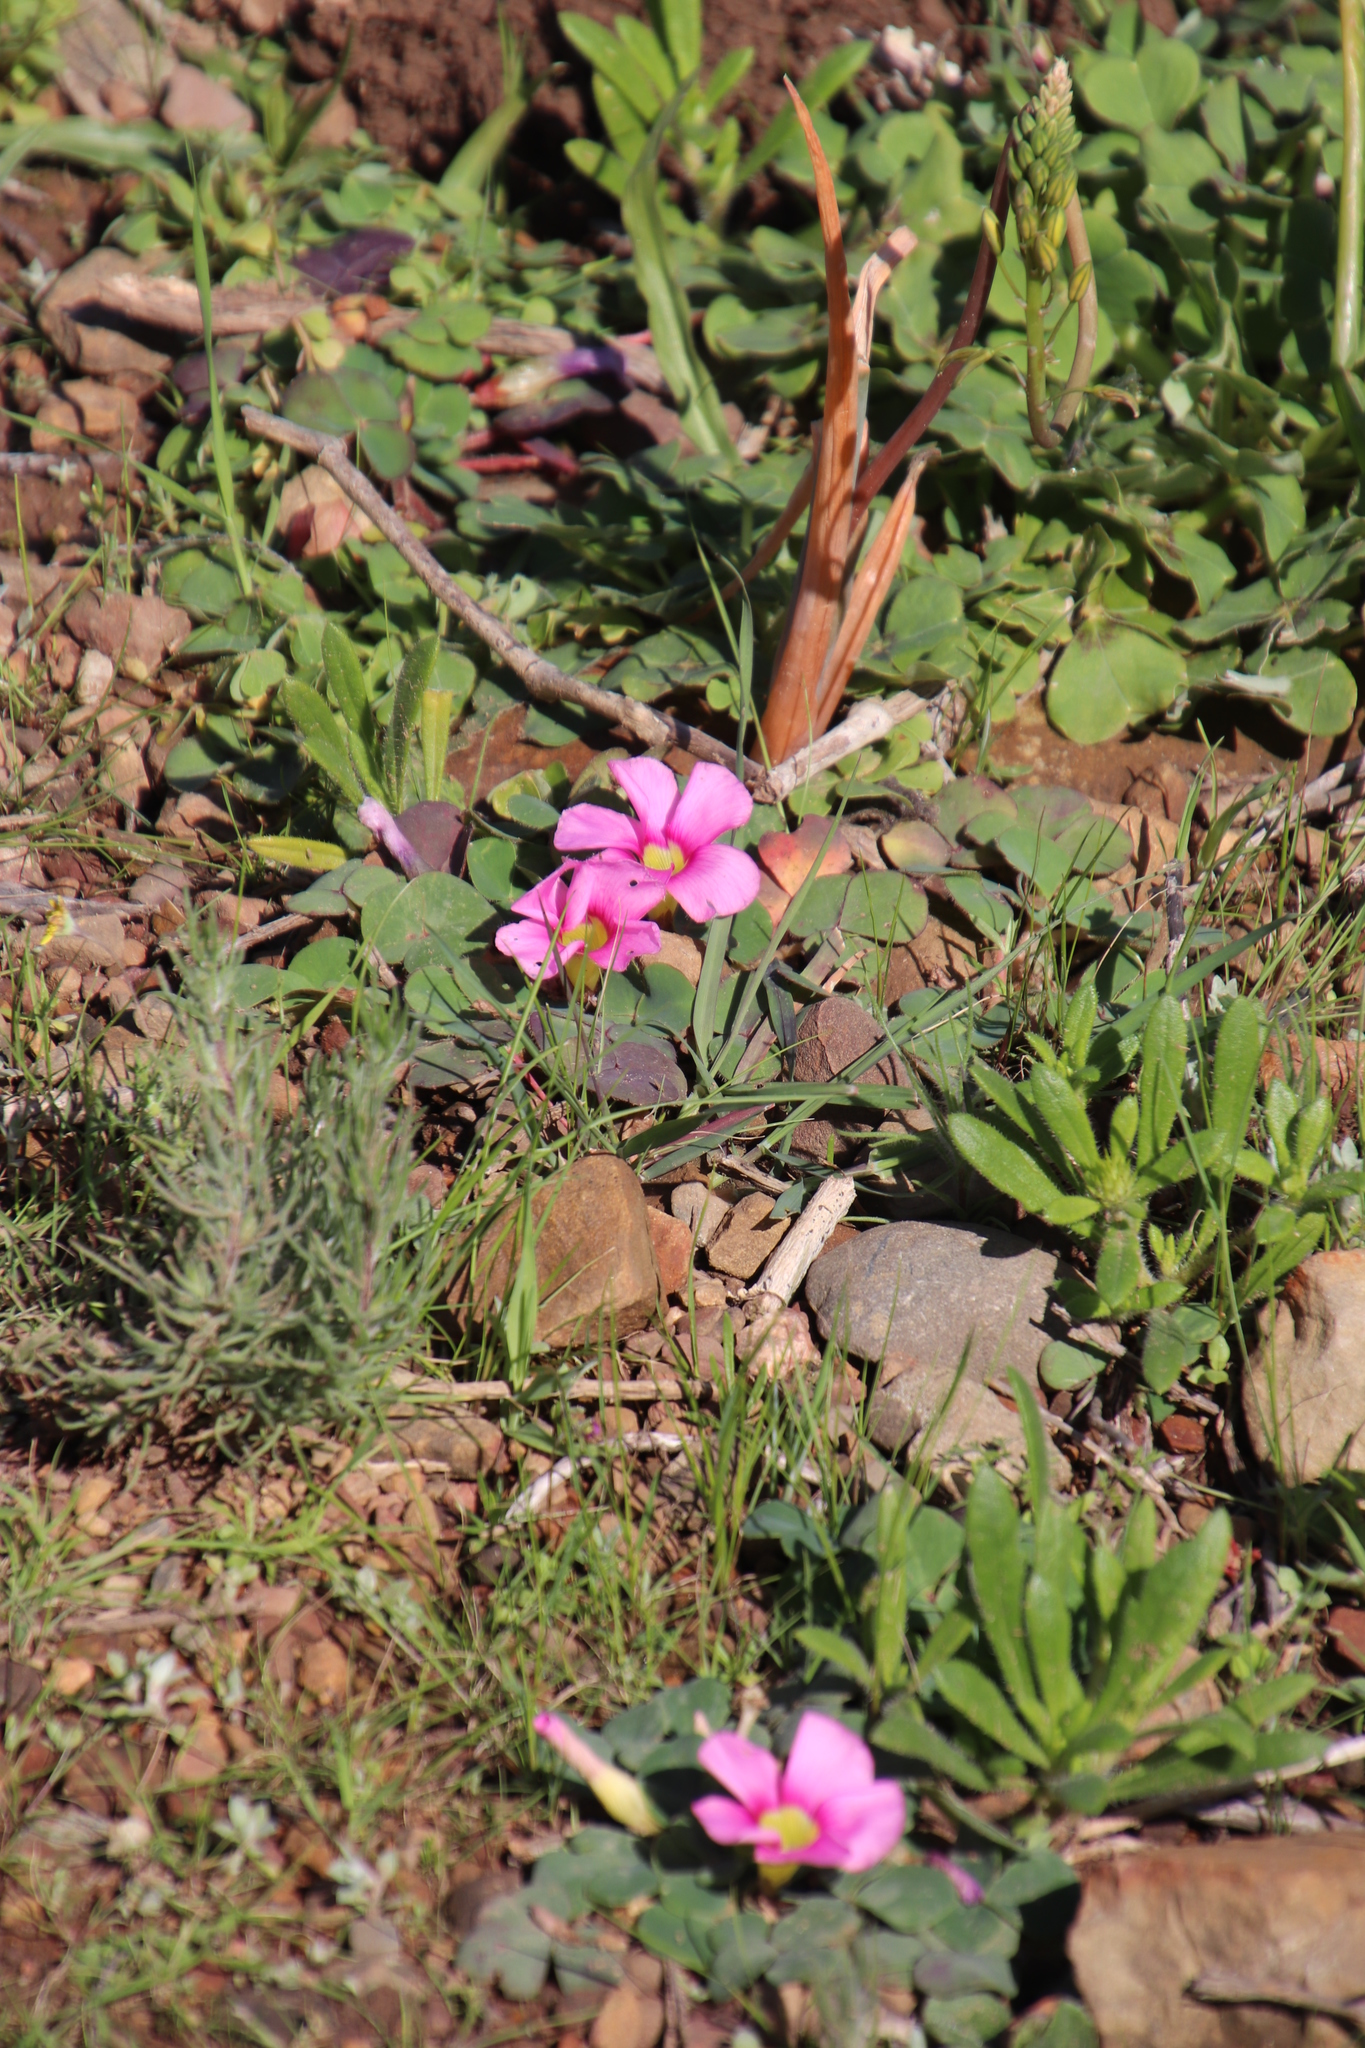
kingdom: Plantae
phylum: Tracheophyta
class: Magnoliopsida
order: Oxalidales
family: Oxalidaceae
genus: Oxalis
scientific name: Oxalis purpurea
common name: Purple woodsorrel
